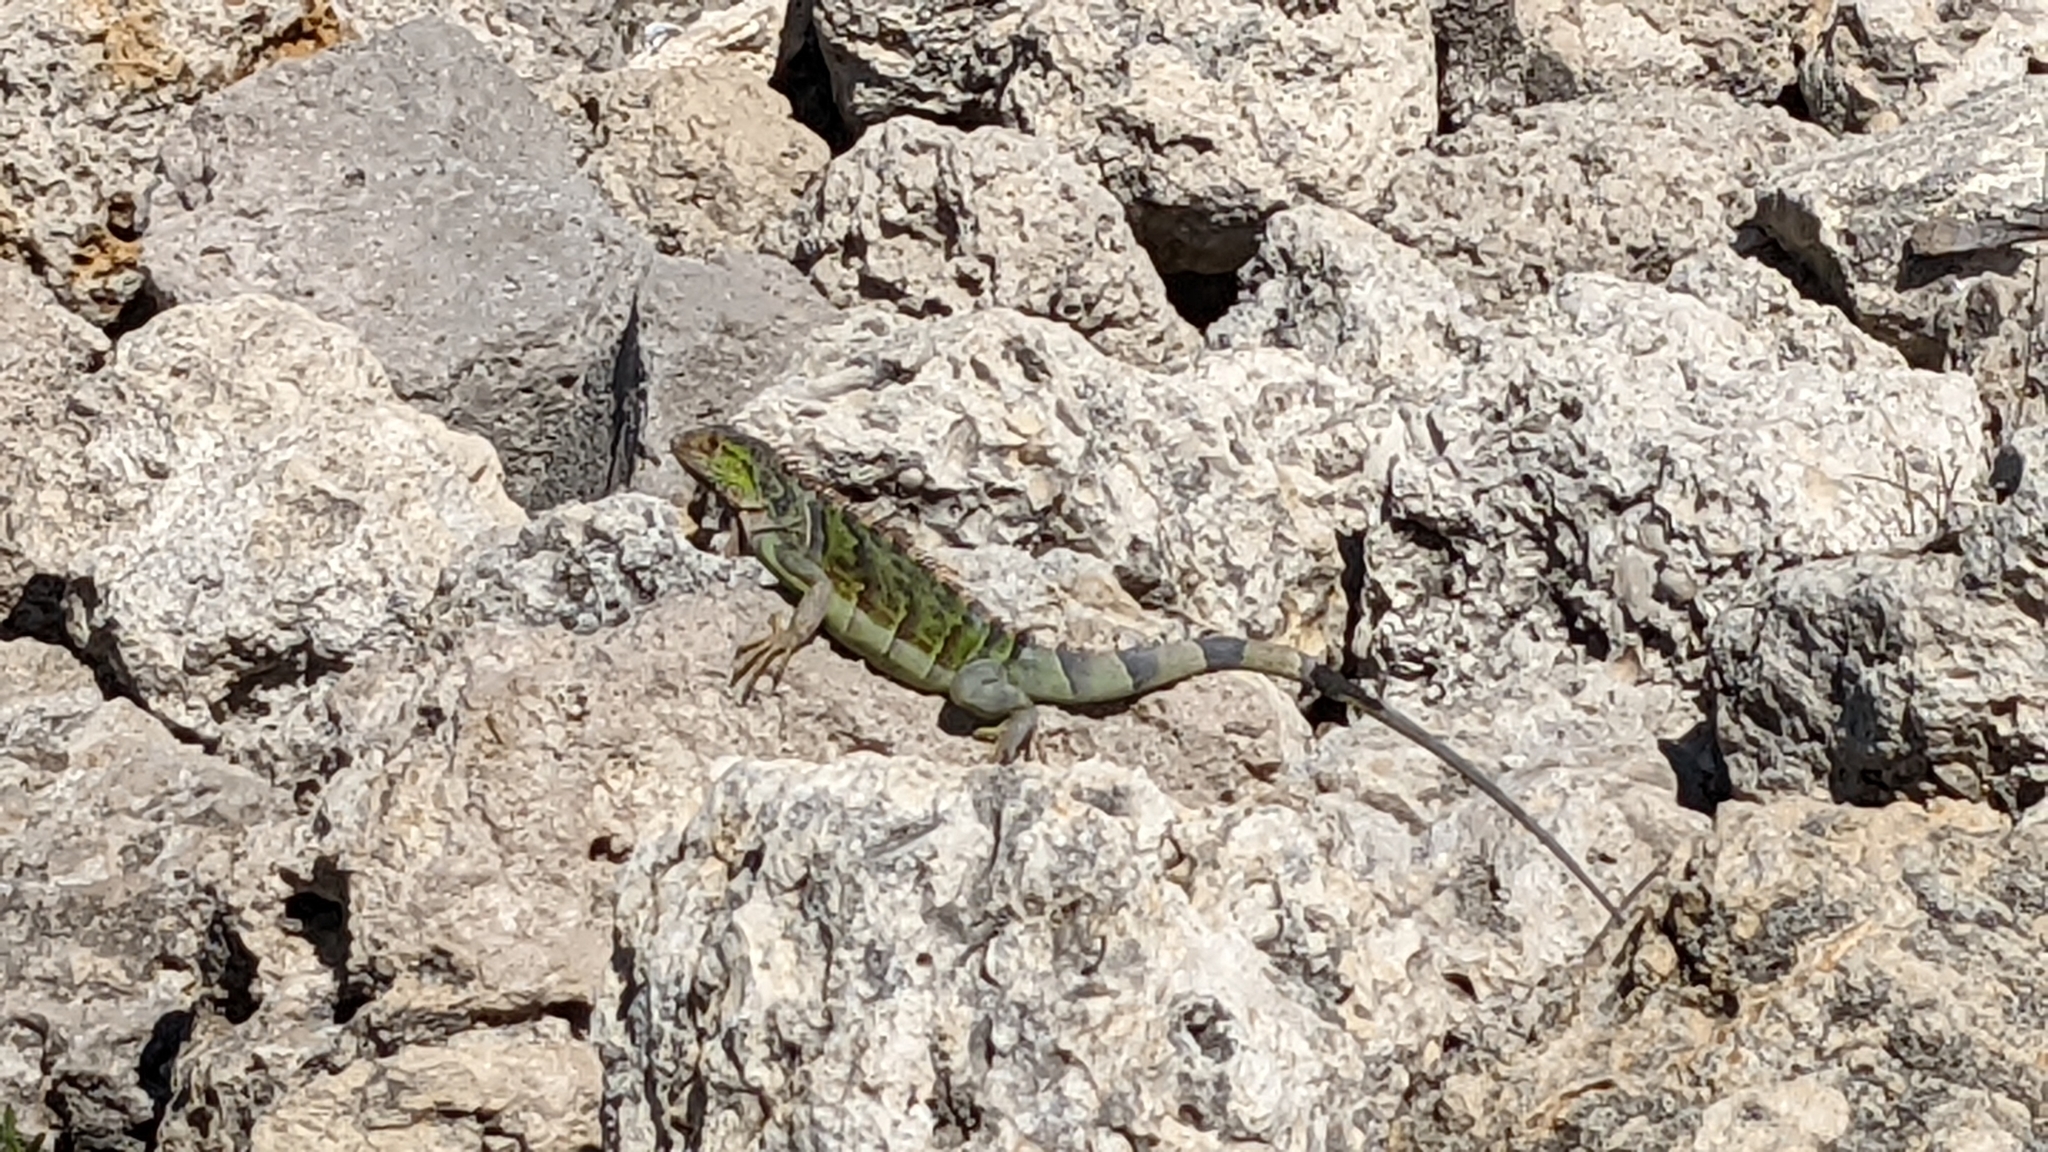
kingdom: Animalia
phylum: Chordata
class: Squamata
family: Iguanidae
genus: Iguana
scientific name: Iguana iguana
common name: Green iguana
